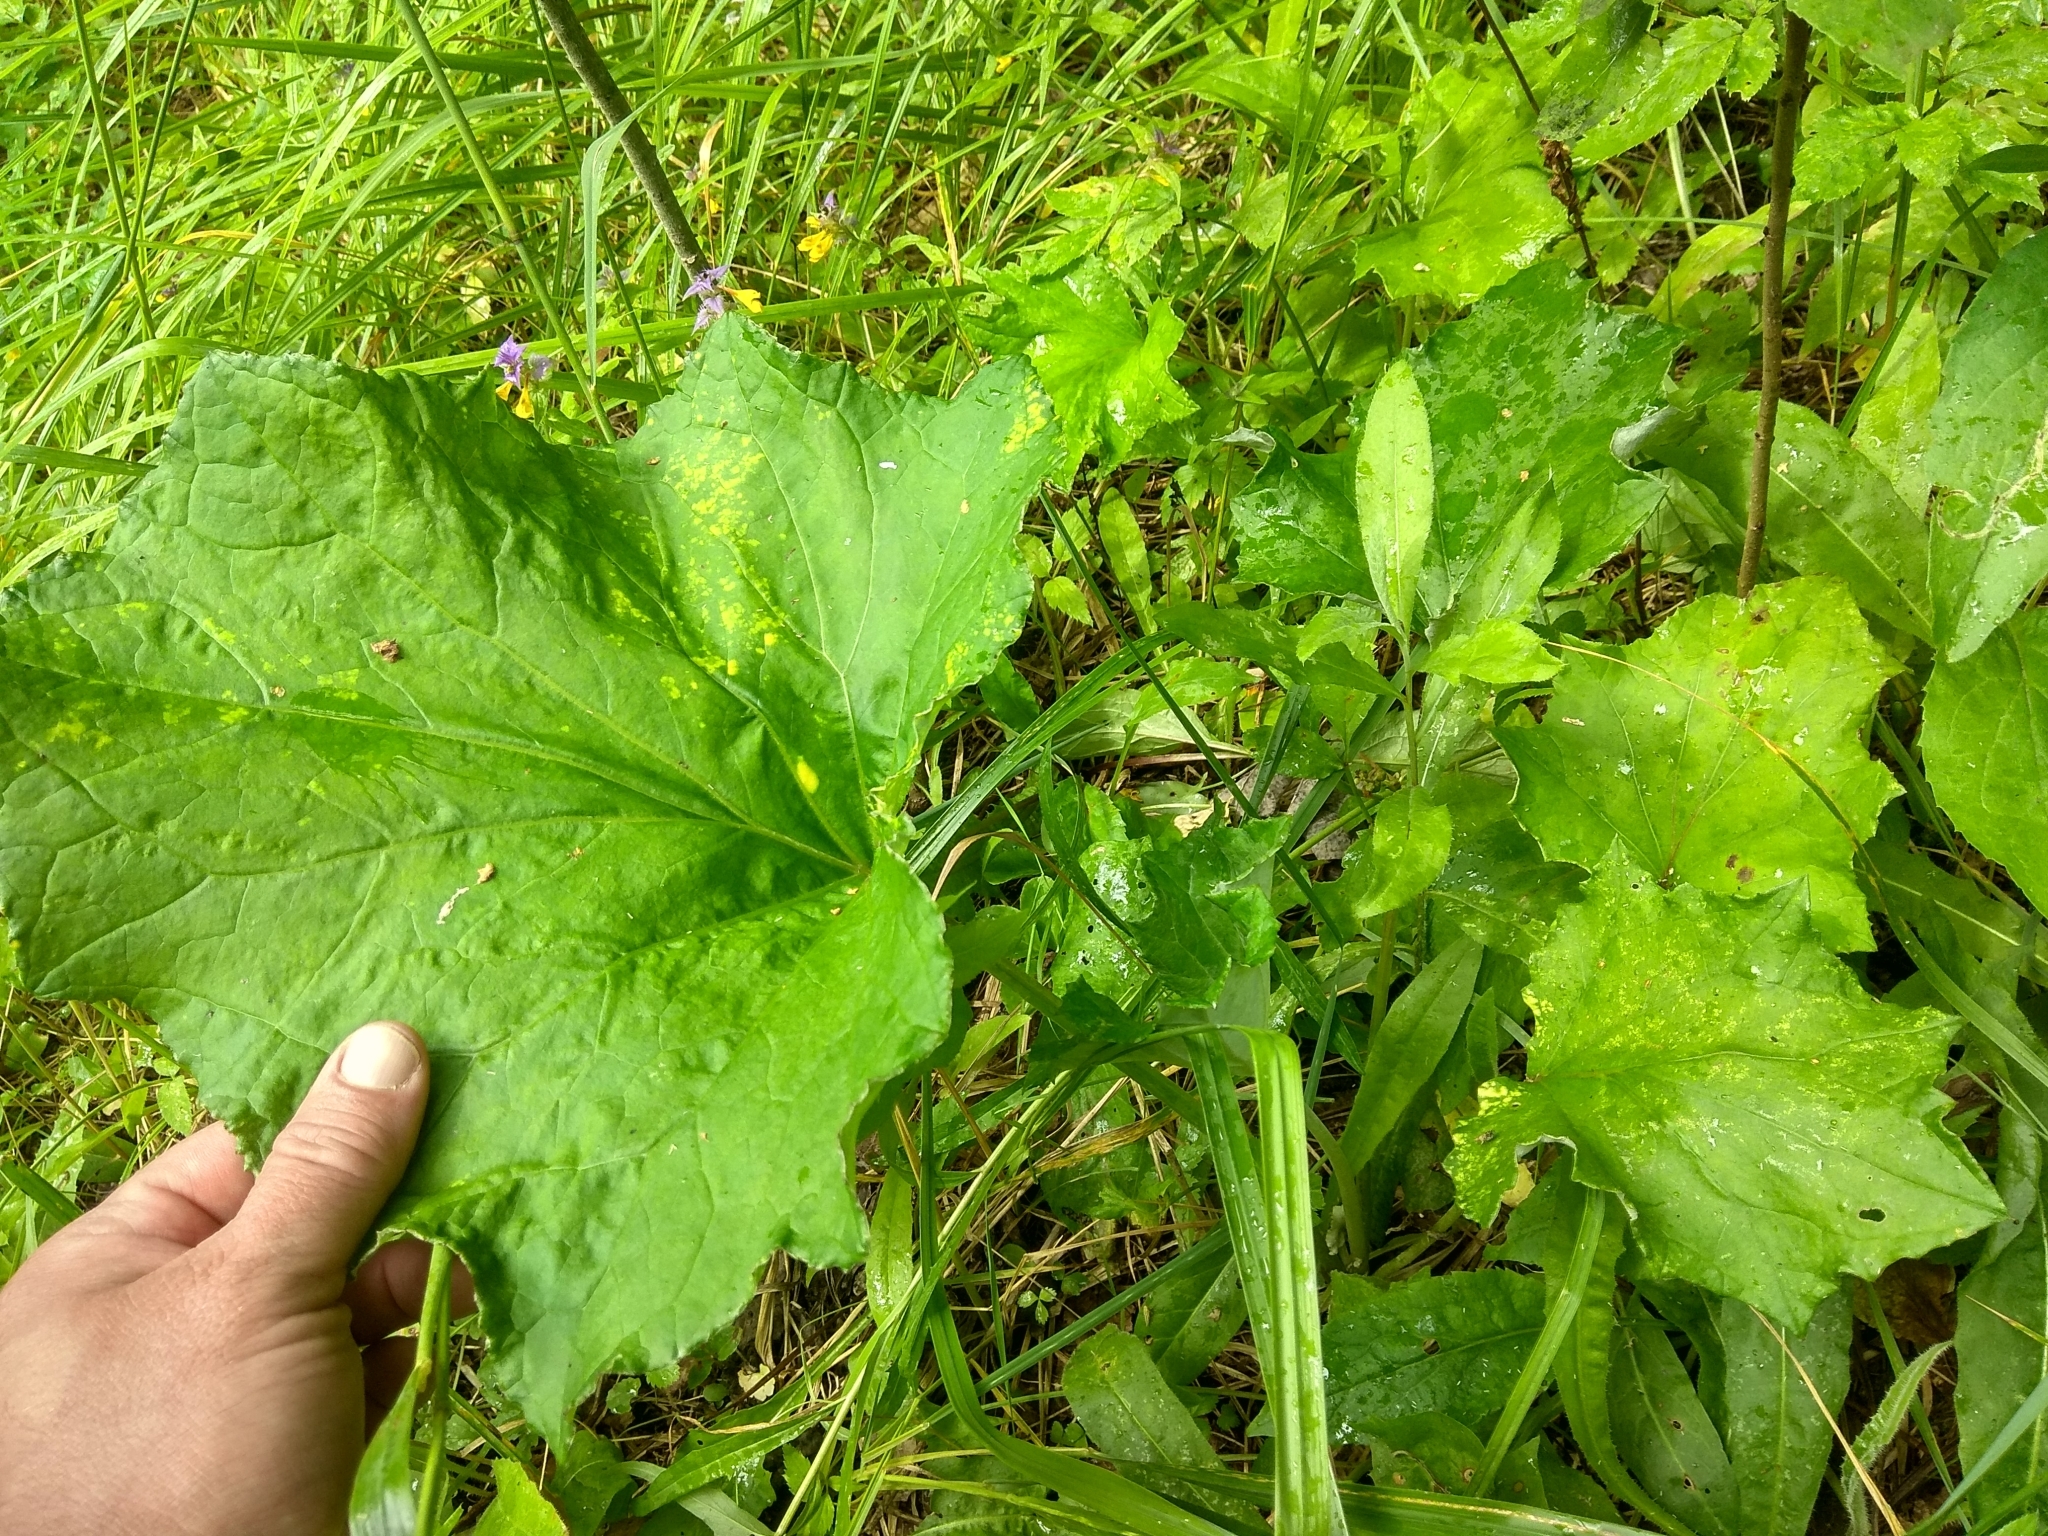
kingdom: Plantae
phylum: Tracheophyta
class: Magnoliopsida
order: Asterales
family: Asteraceae
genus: Tussilago
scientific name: Tussilago farfara
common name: Coltsfoot
